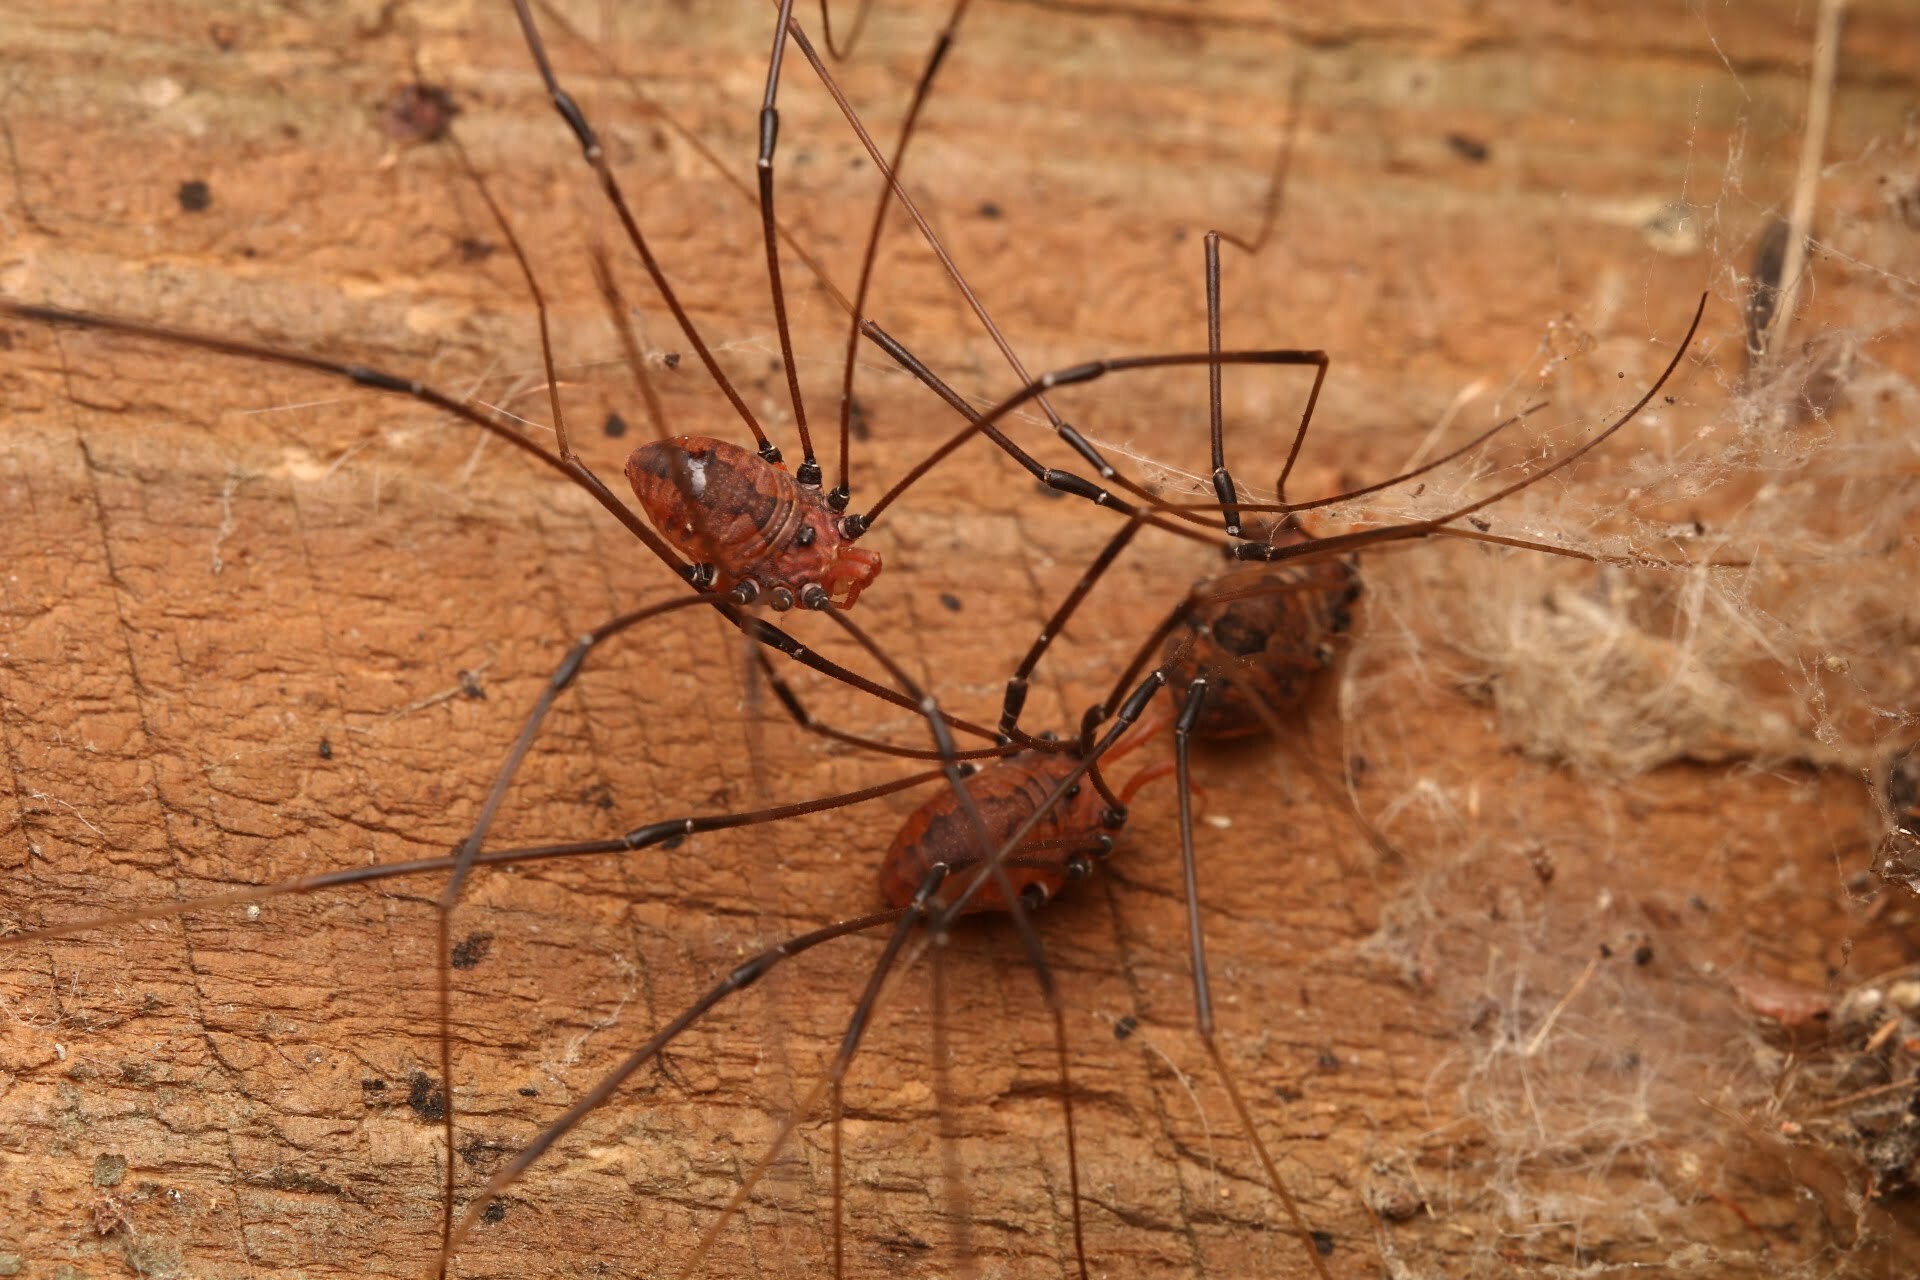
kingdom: Animalia
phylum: Arthropoda
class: Arachnida
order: Opiliones
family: Sclerosomatidae
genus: Leiobunum
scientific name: Leiobunum vittatum
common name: Eastern harvestman
